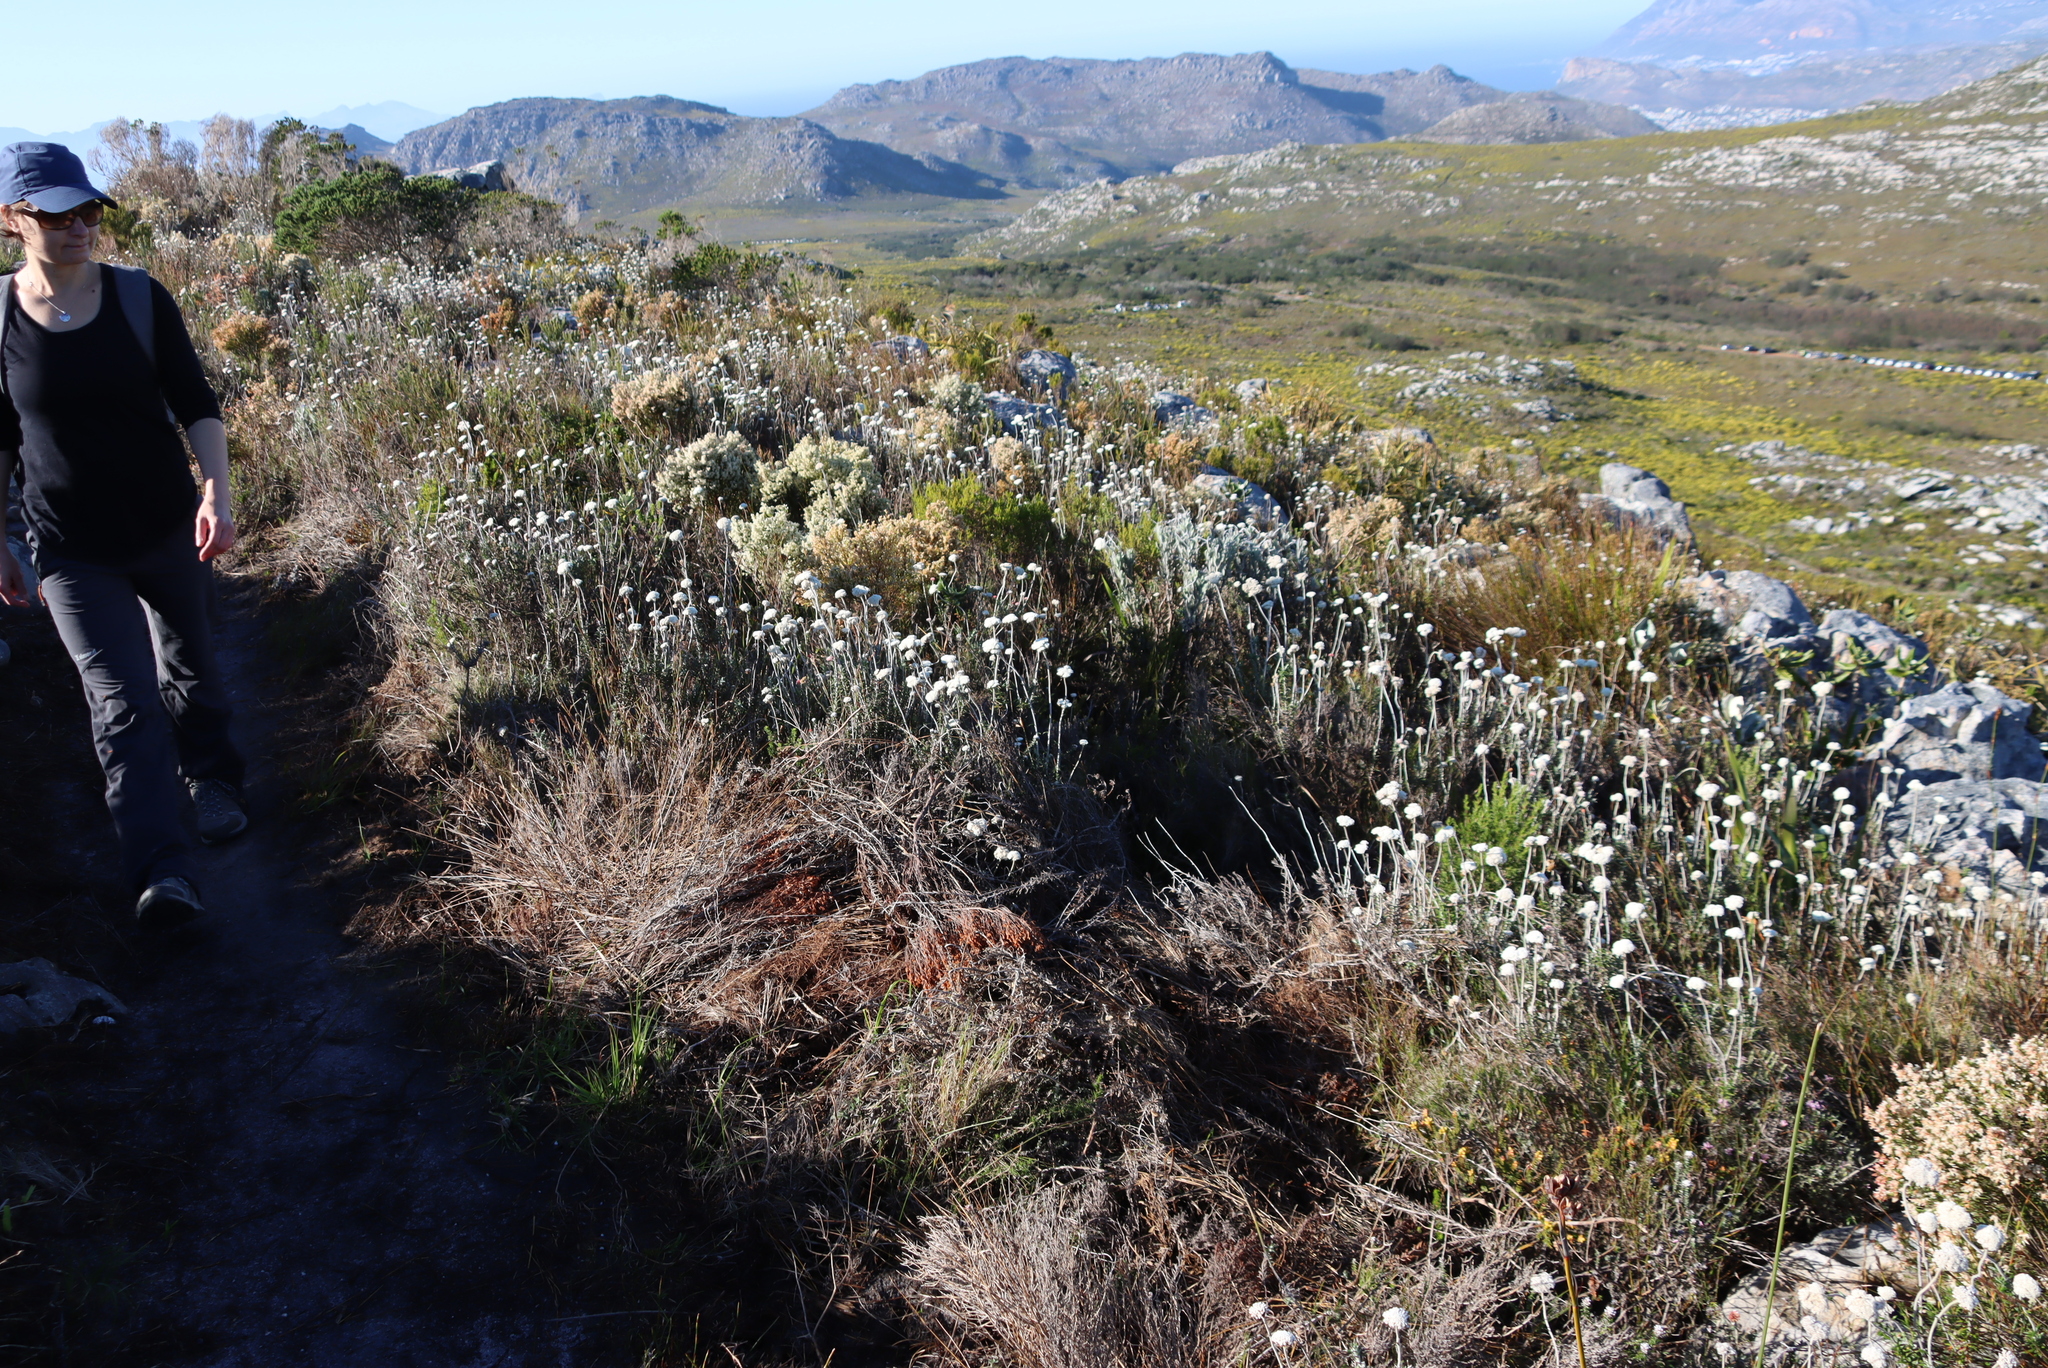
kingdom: Plantae
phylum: Tracheophyta
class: Magnoliopsida
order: Asterales
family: Asteraceae
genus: Anaxeton
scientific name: Anaxeton arborescens
